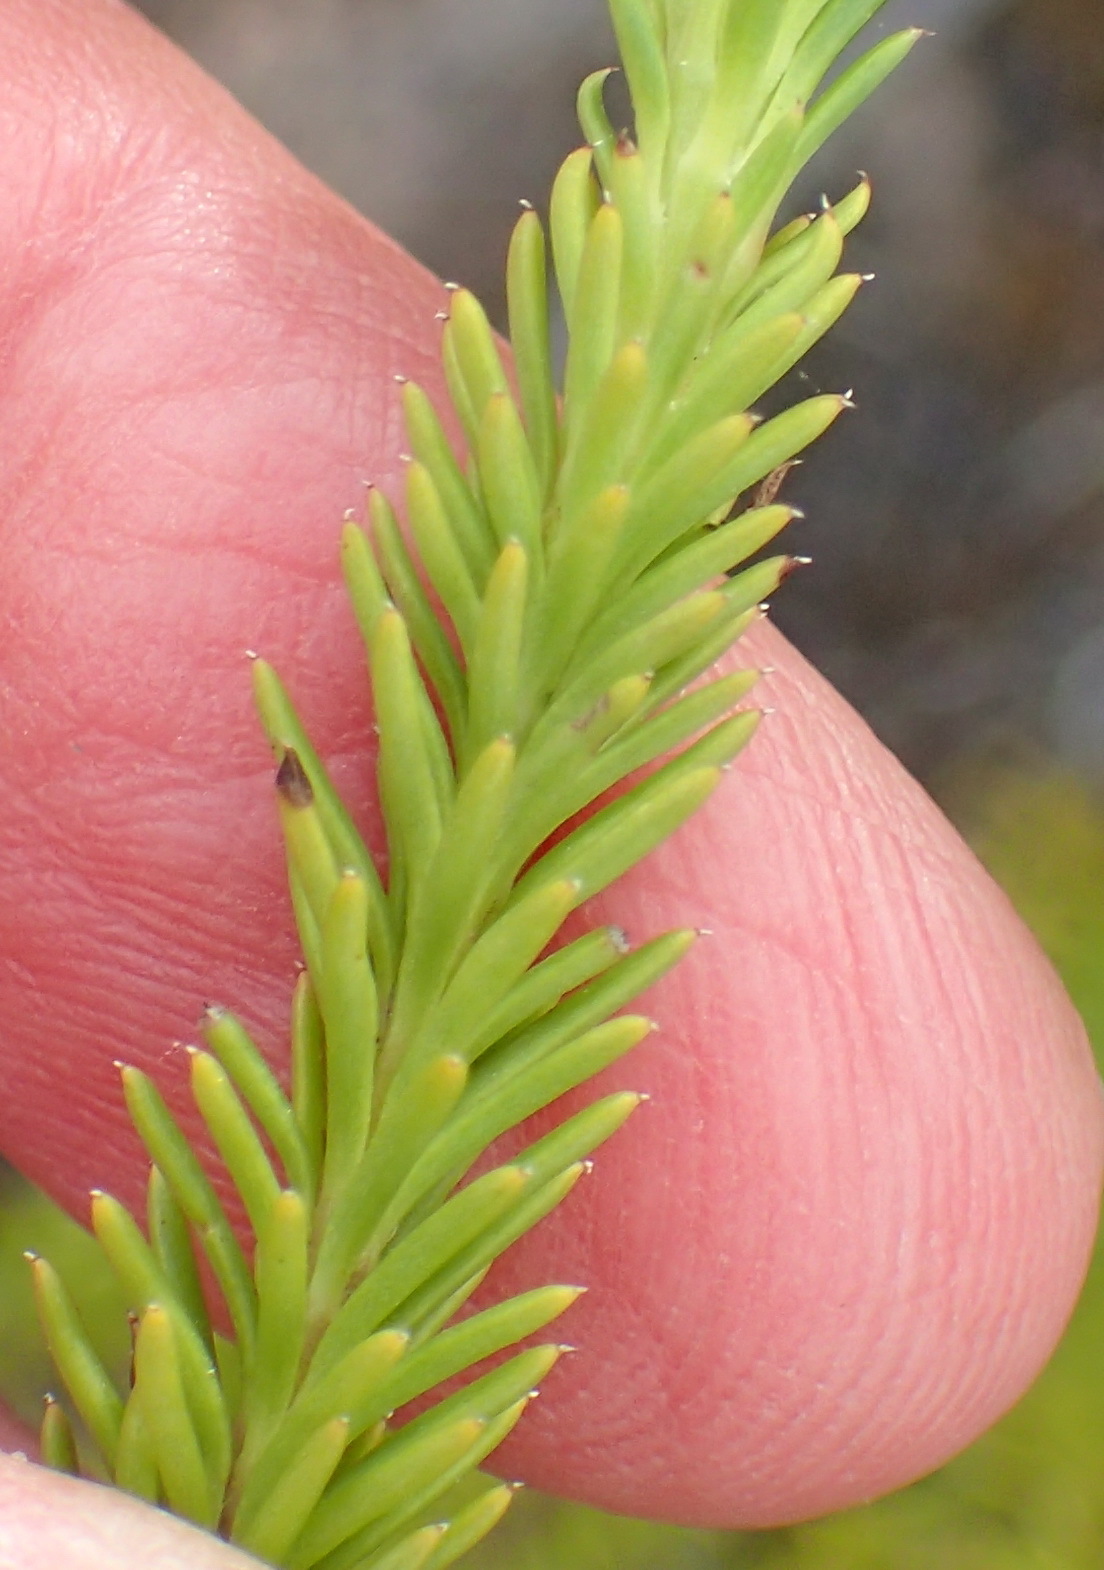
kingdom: Plantae
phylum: Tracheophyta
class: Magnoliopsida
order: Asterales
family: Asteraceae
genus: Senecio
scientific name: Senecio pinifolius
